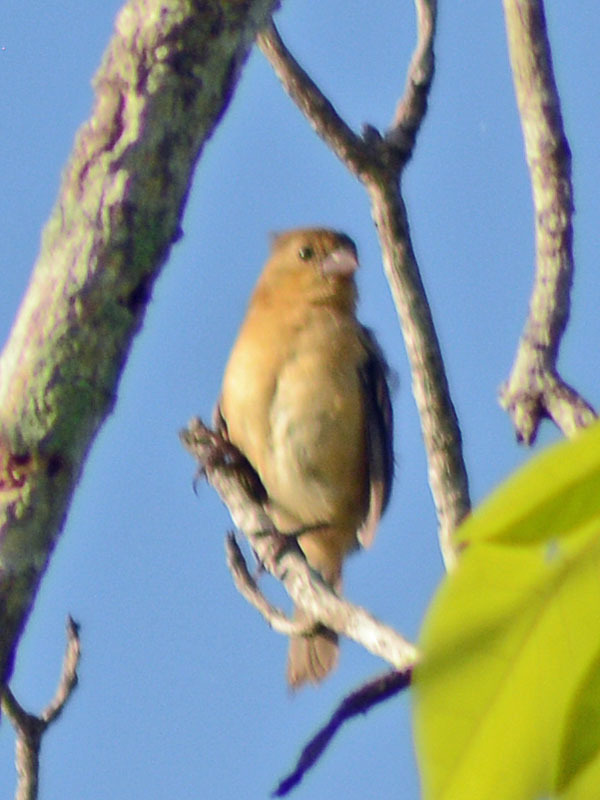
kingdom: Animalia
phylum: Chordata
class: Aves
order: Passeriformes
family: Thraupidae
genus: Sporophila
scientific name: Sporophila morelleti
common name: Morelet's seedeater
